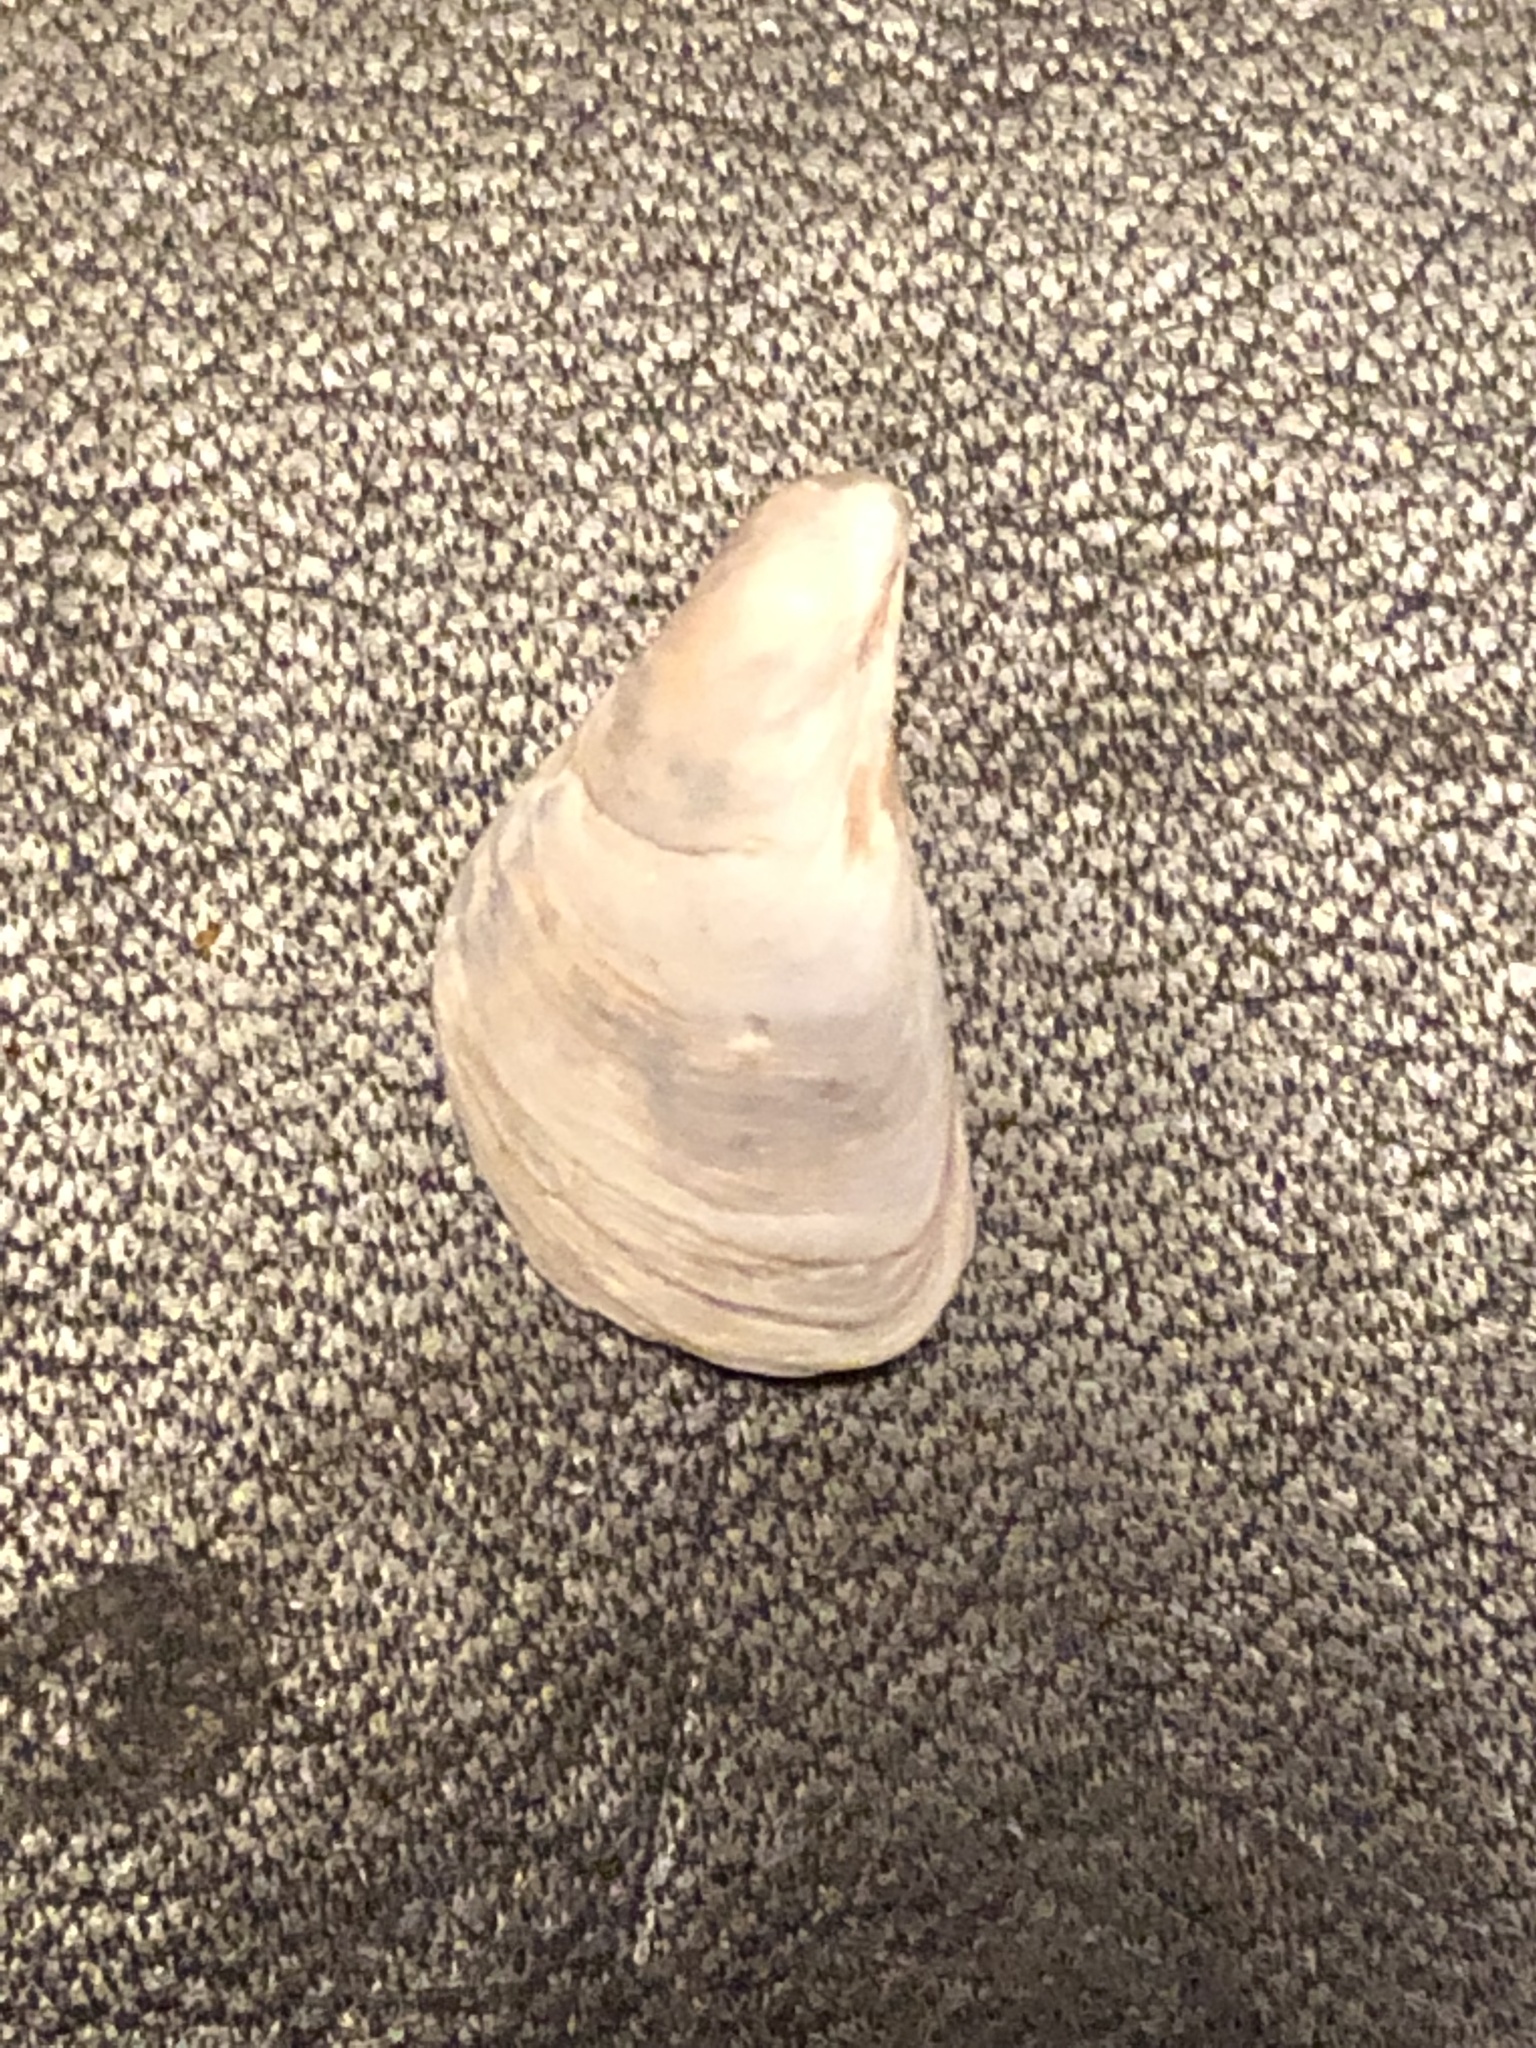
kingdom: Animalia
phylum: Mollusca
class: Bivalvia
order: Myida
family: Dreissenidae
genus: Dreissena
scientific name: Dreissena bugensis
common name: Quagga mussel
